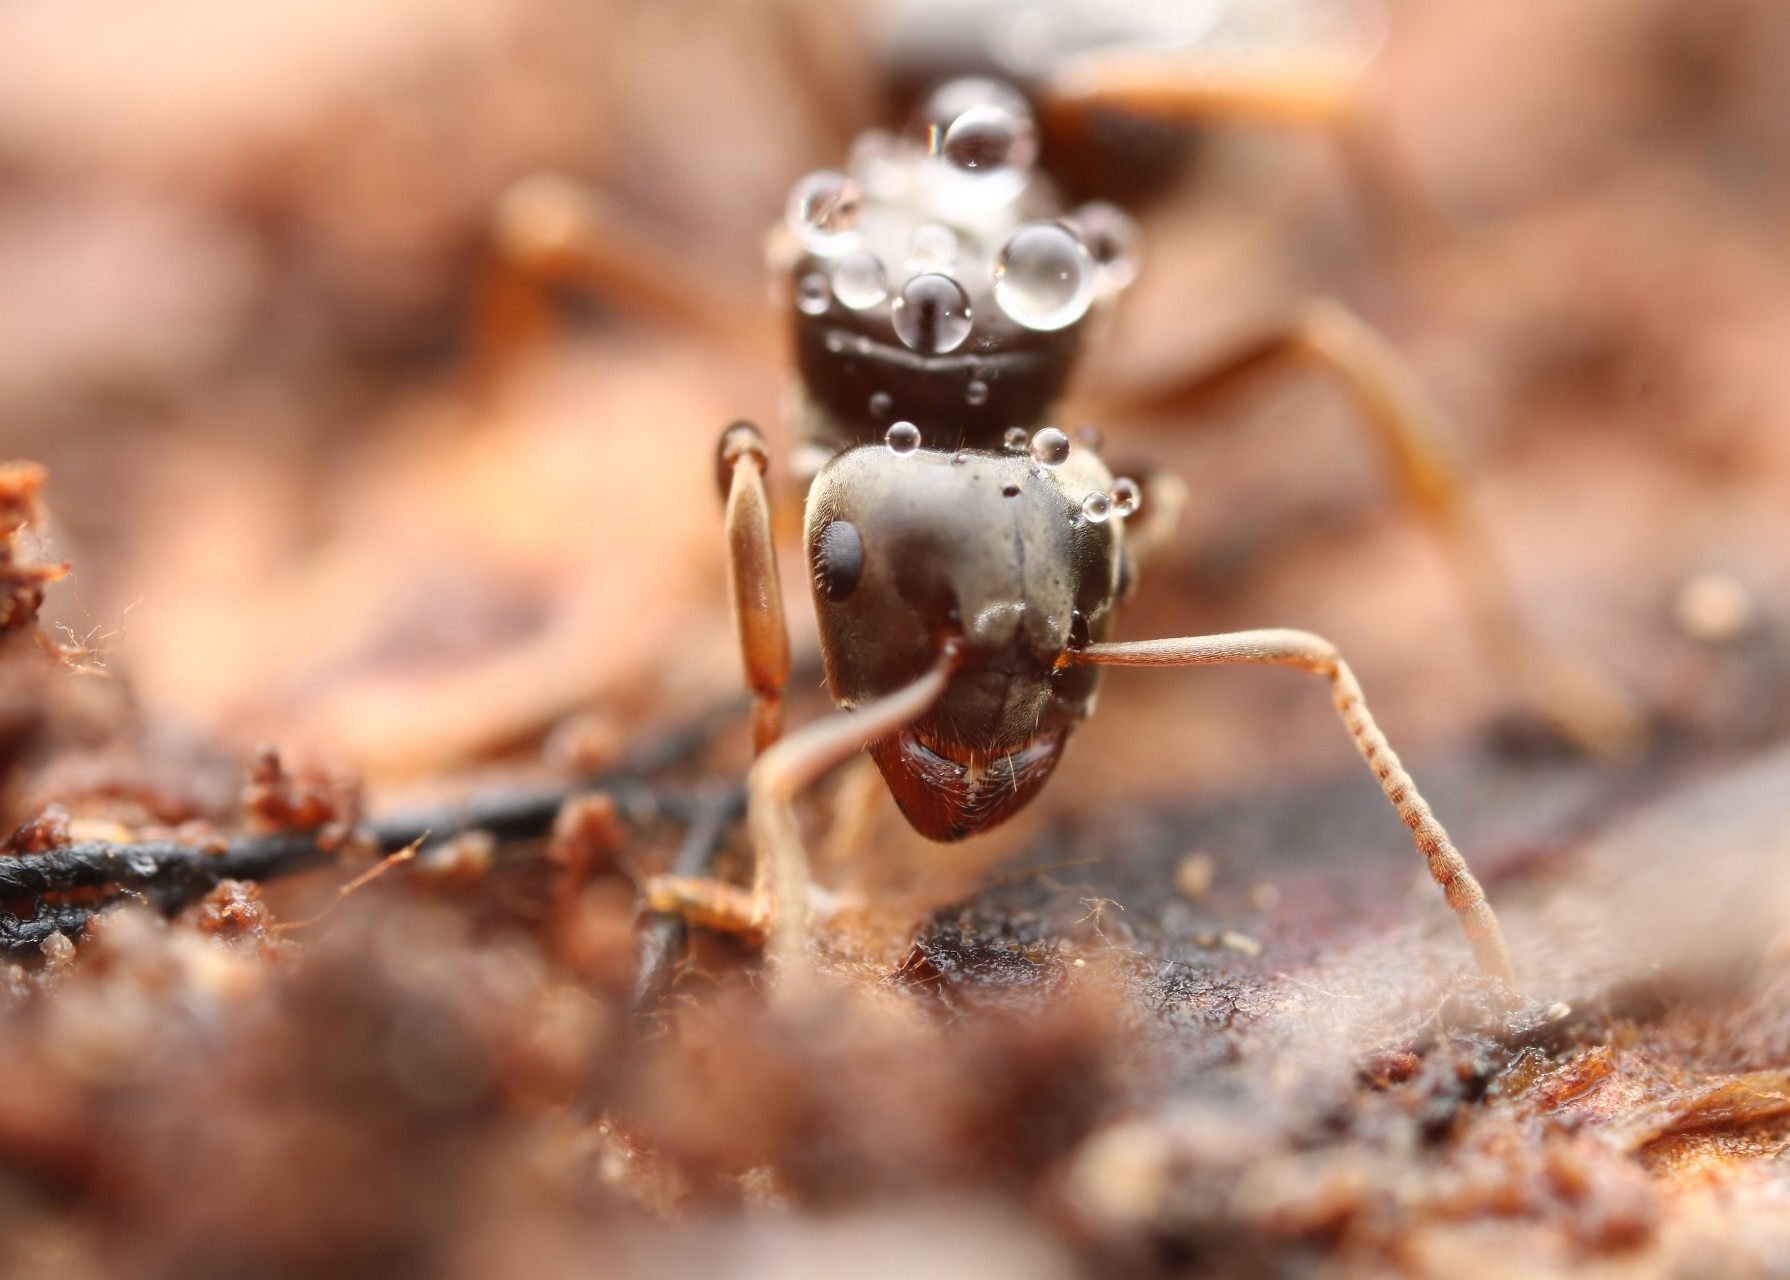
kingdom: Animalia
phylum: Arthropoda
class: Insecta
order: Hymenoptera
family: Formicidae
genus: Lasius
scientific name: Lasius aphidicola
